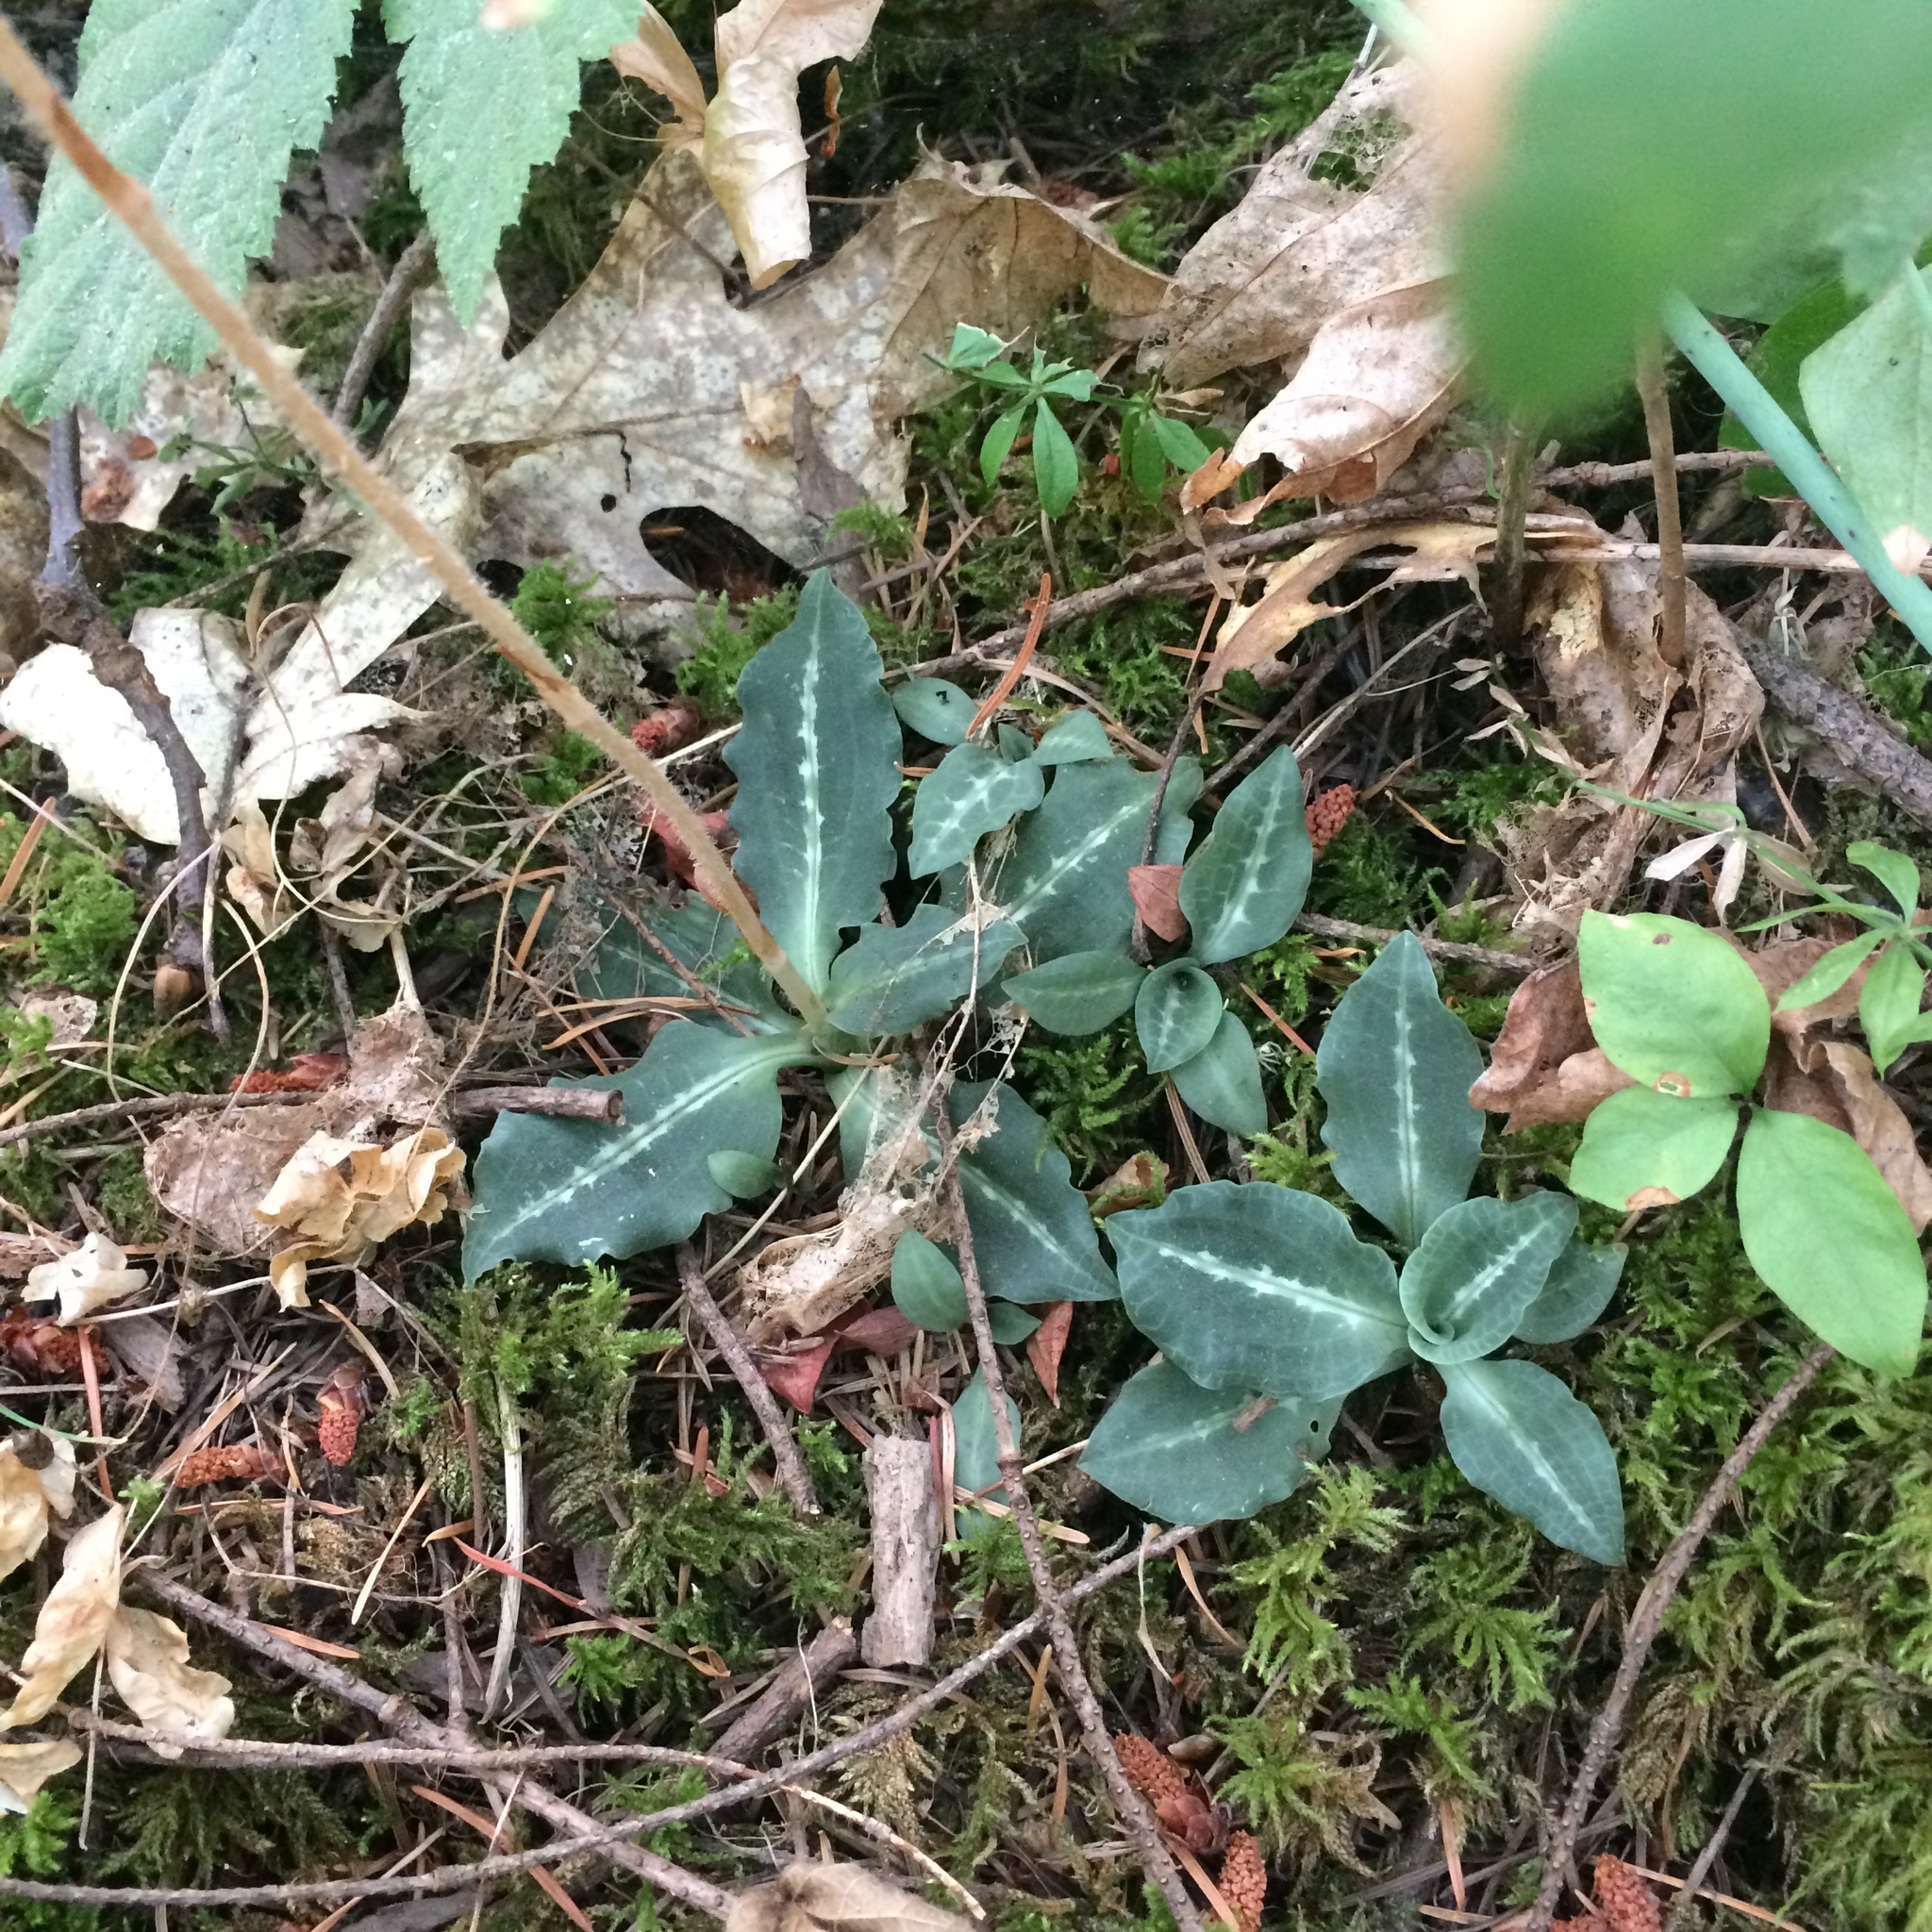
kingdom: Plantae
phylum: Tracheophyta
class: Liliopsida
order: Asparagales
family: Orchidaceae
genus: Goodyera
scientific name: Goodyera oblongifolia
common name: Giant rattlesnake-plantain
